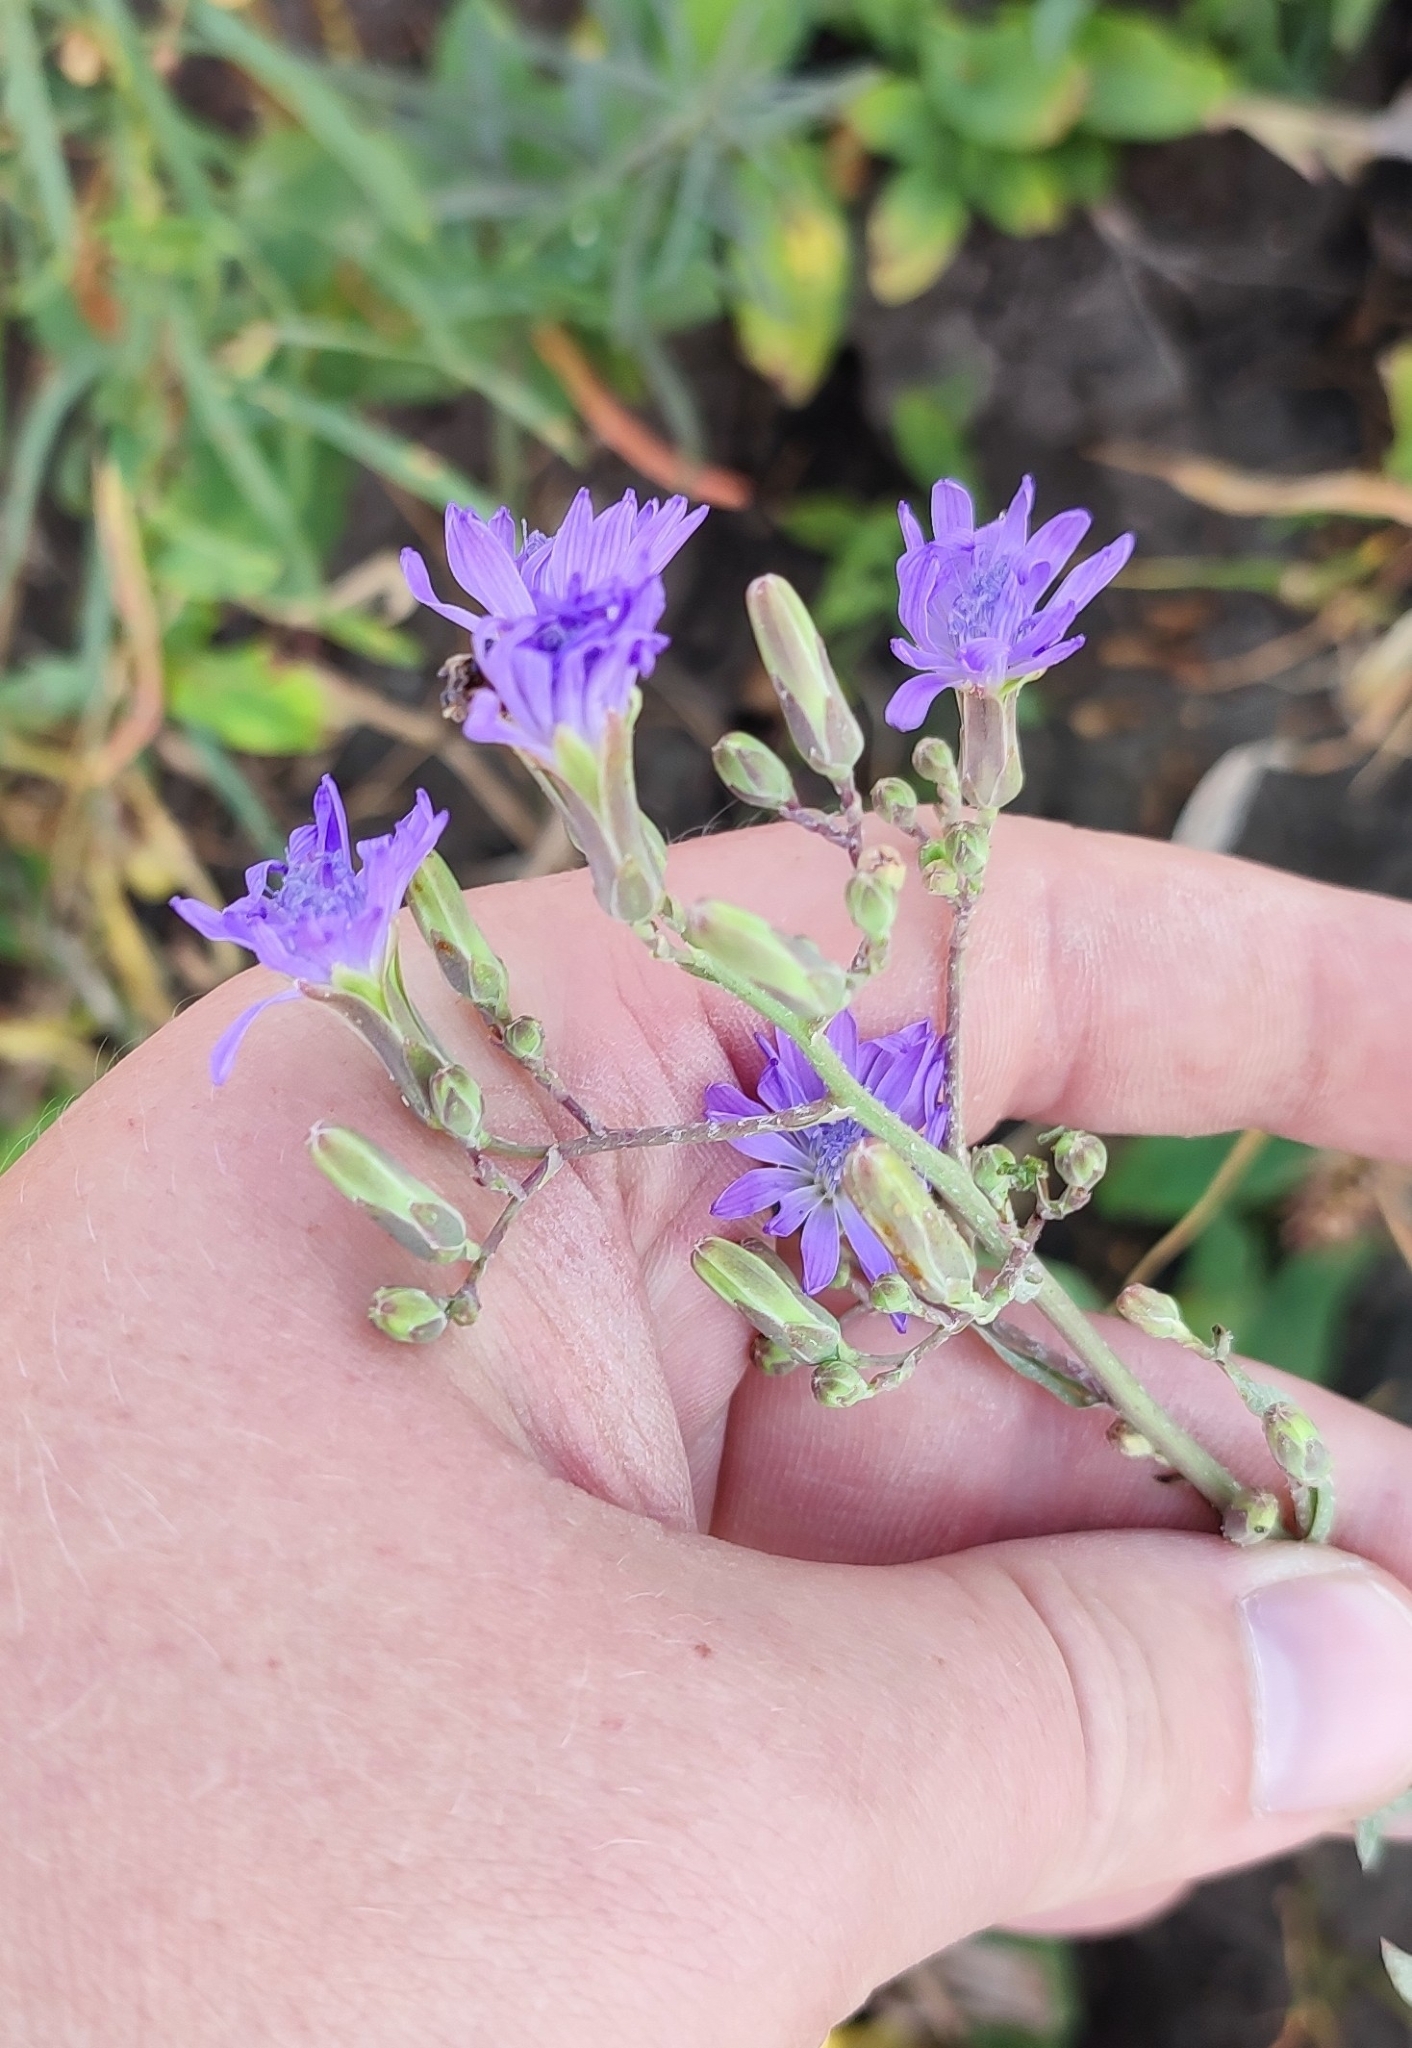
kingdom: Plantae
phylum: Tracheophyta
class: Magnoliopsida
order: Asterales
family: Asteraceae
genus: Lactuca
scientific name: Lactuca tatarica
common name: Blue lettuce
